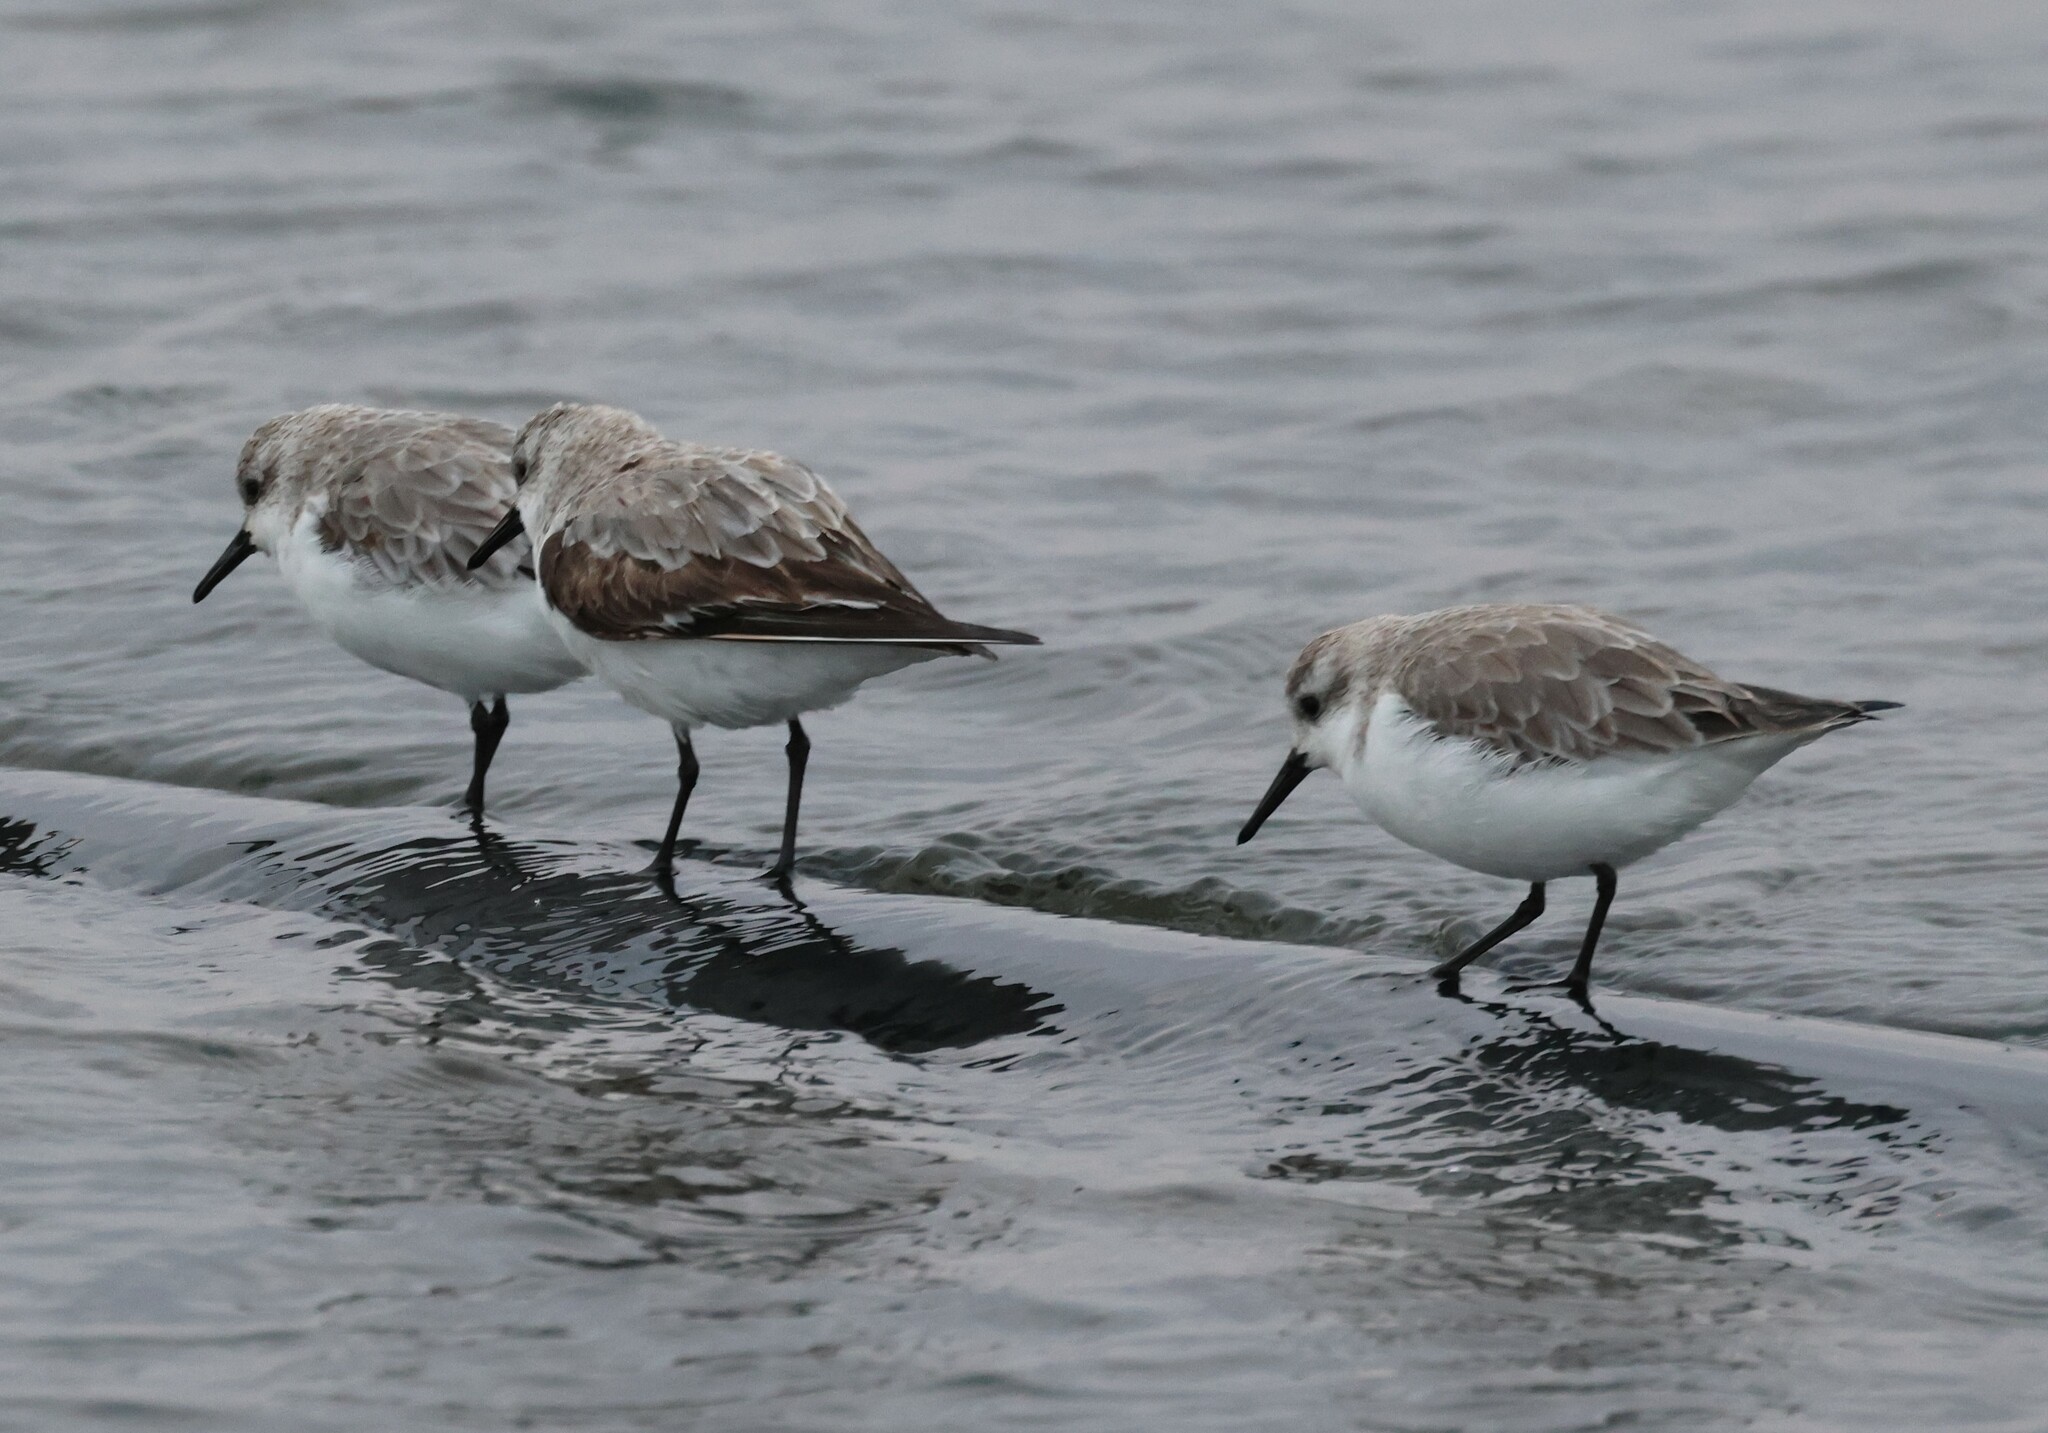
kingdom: Animalia
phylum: Chordata
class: Aves
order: Charadriiformes
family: Scolopacidae
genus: Calidris
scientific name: Calidris alba
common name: Sanderling
